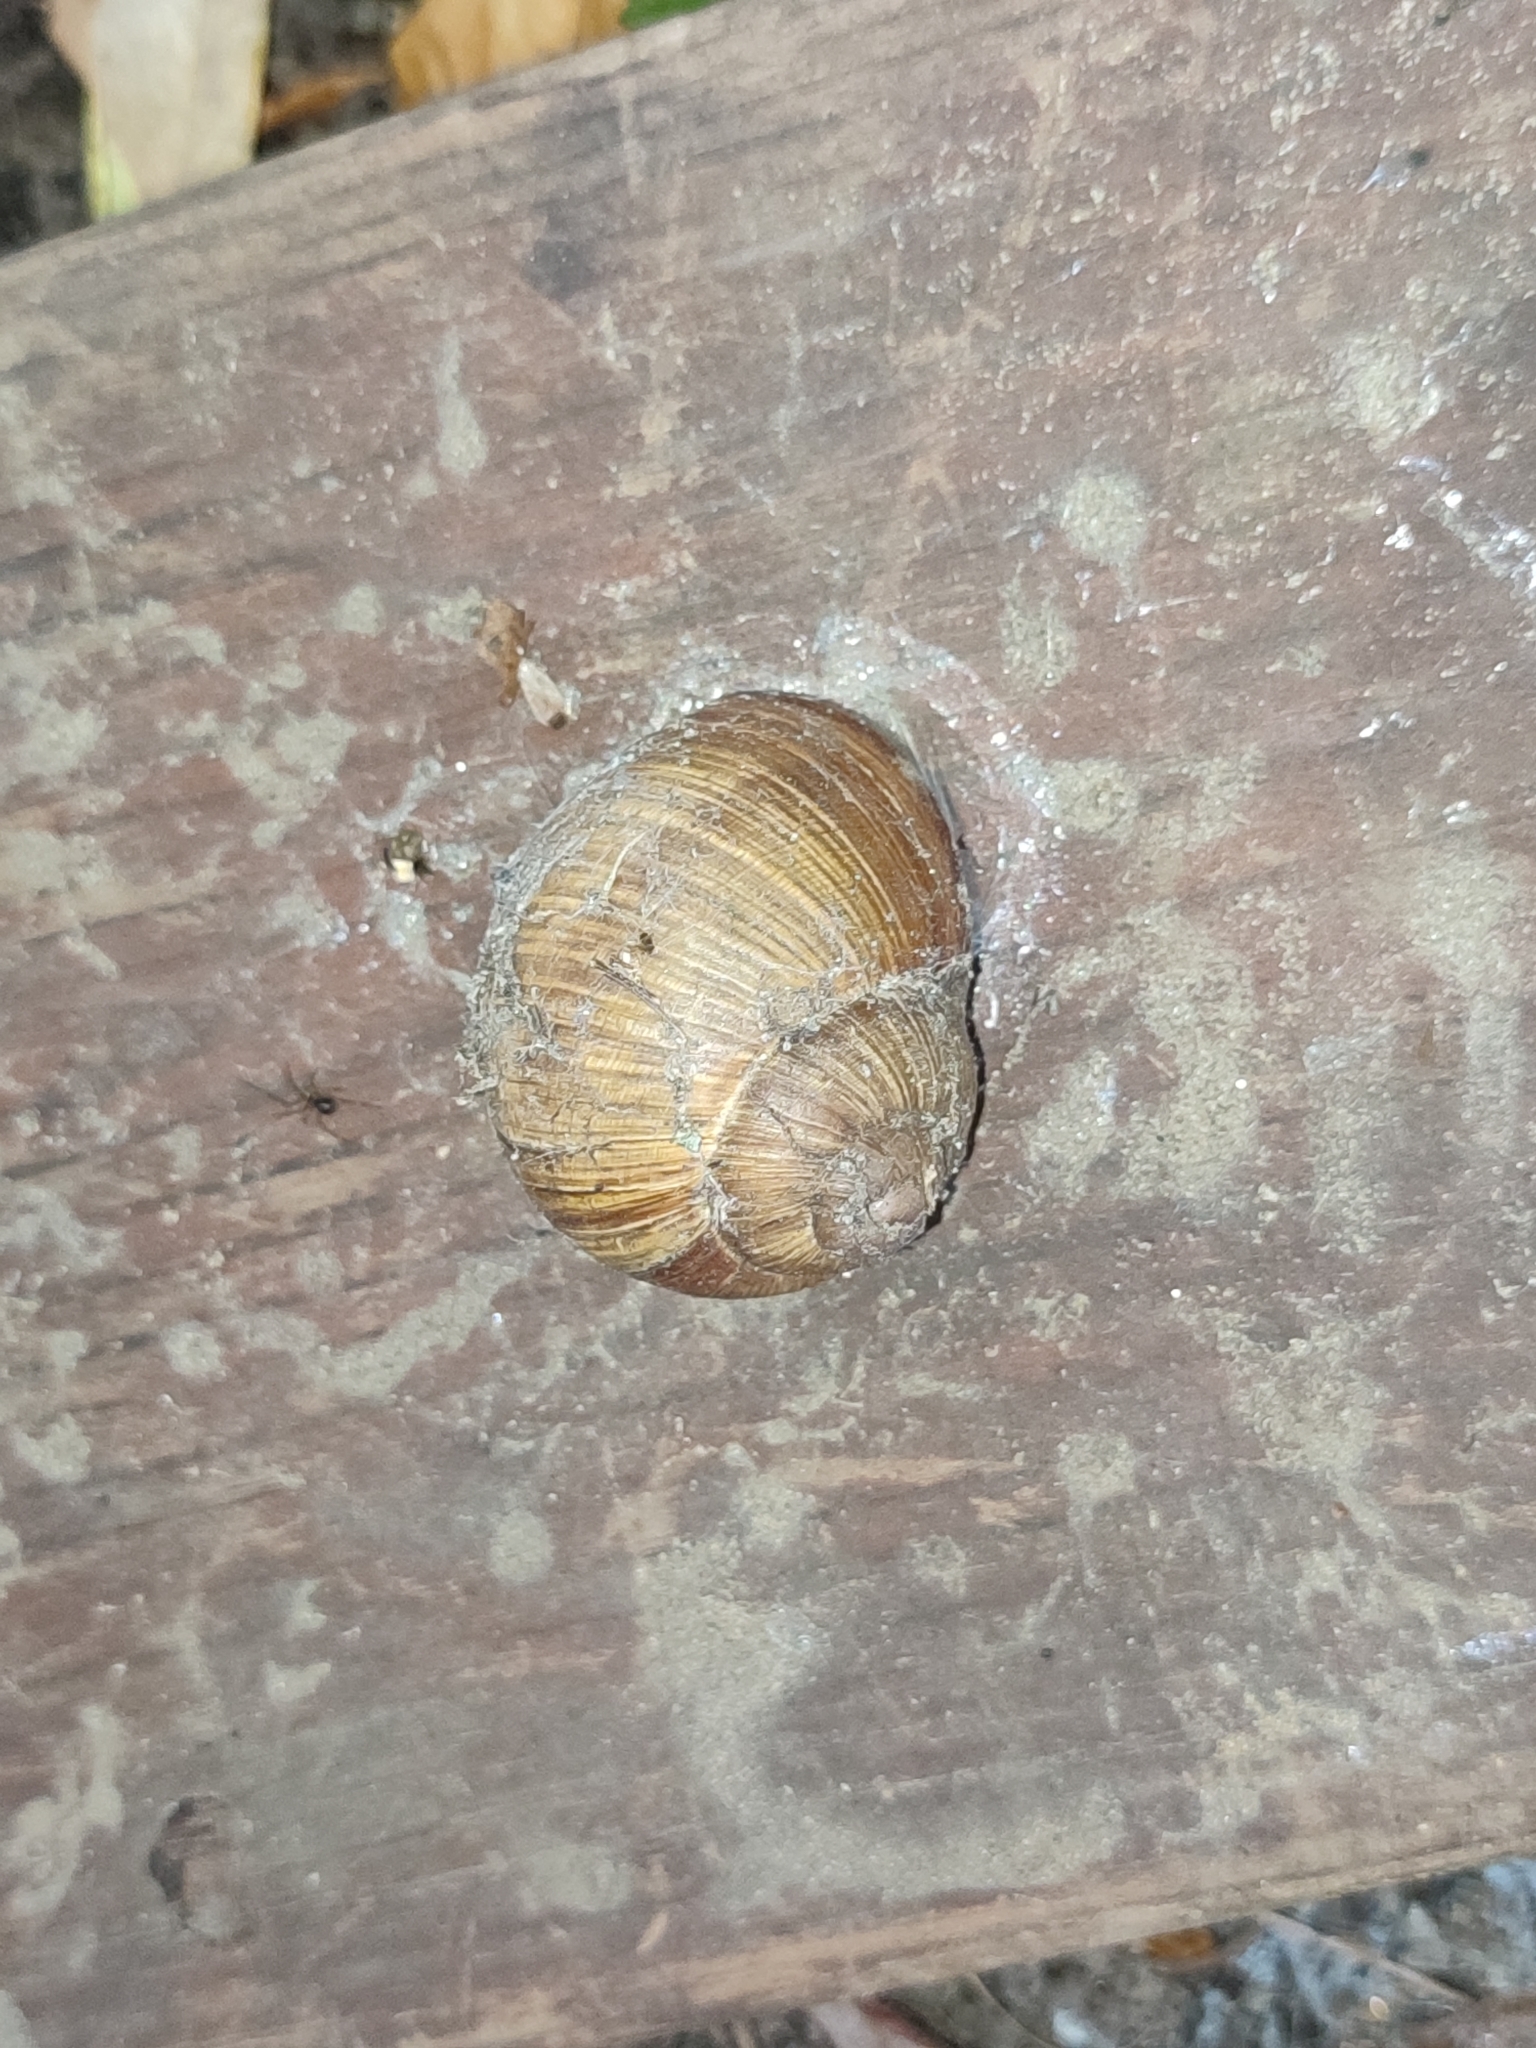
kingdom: Animalia
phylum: Mollusca
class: Gastropoda
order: Stylommatophora
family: Helicidae
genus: Helix
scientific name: Helix pomatia
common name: Roman snail
